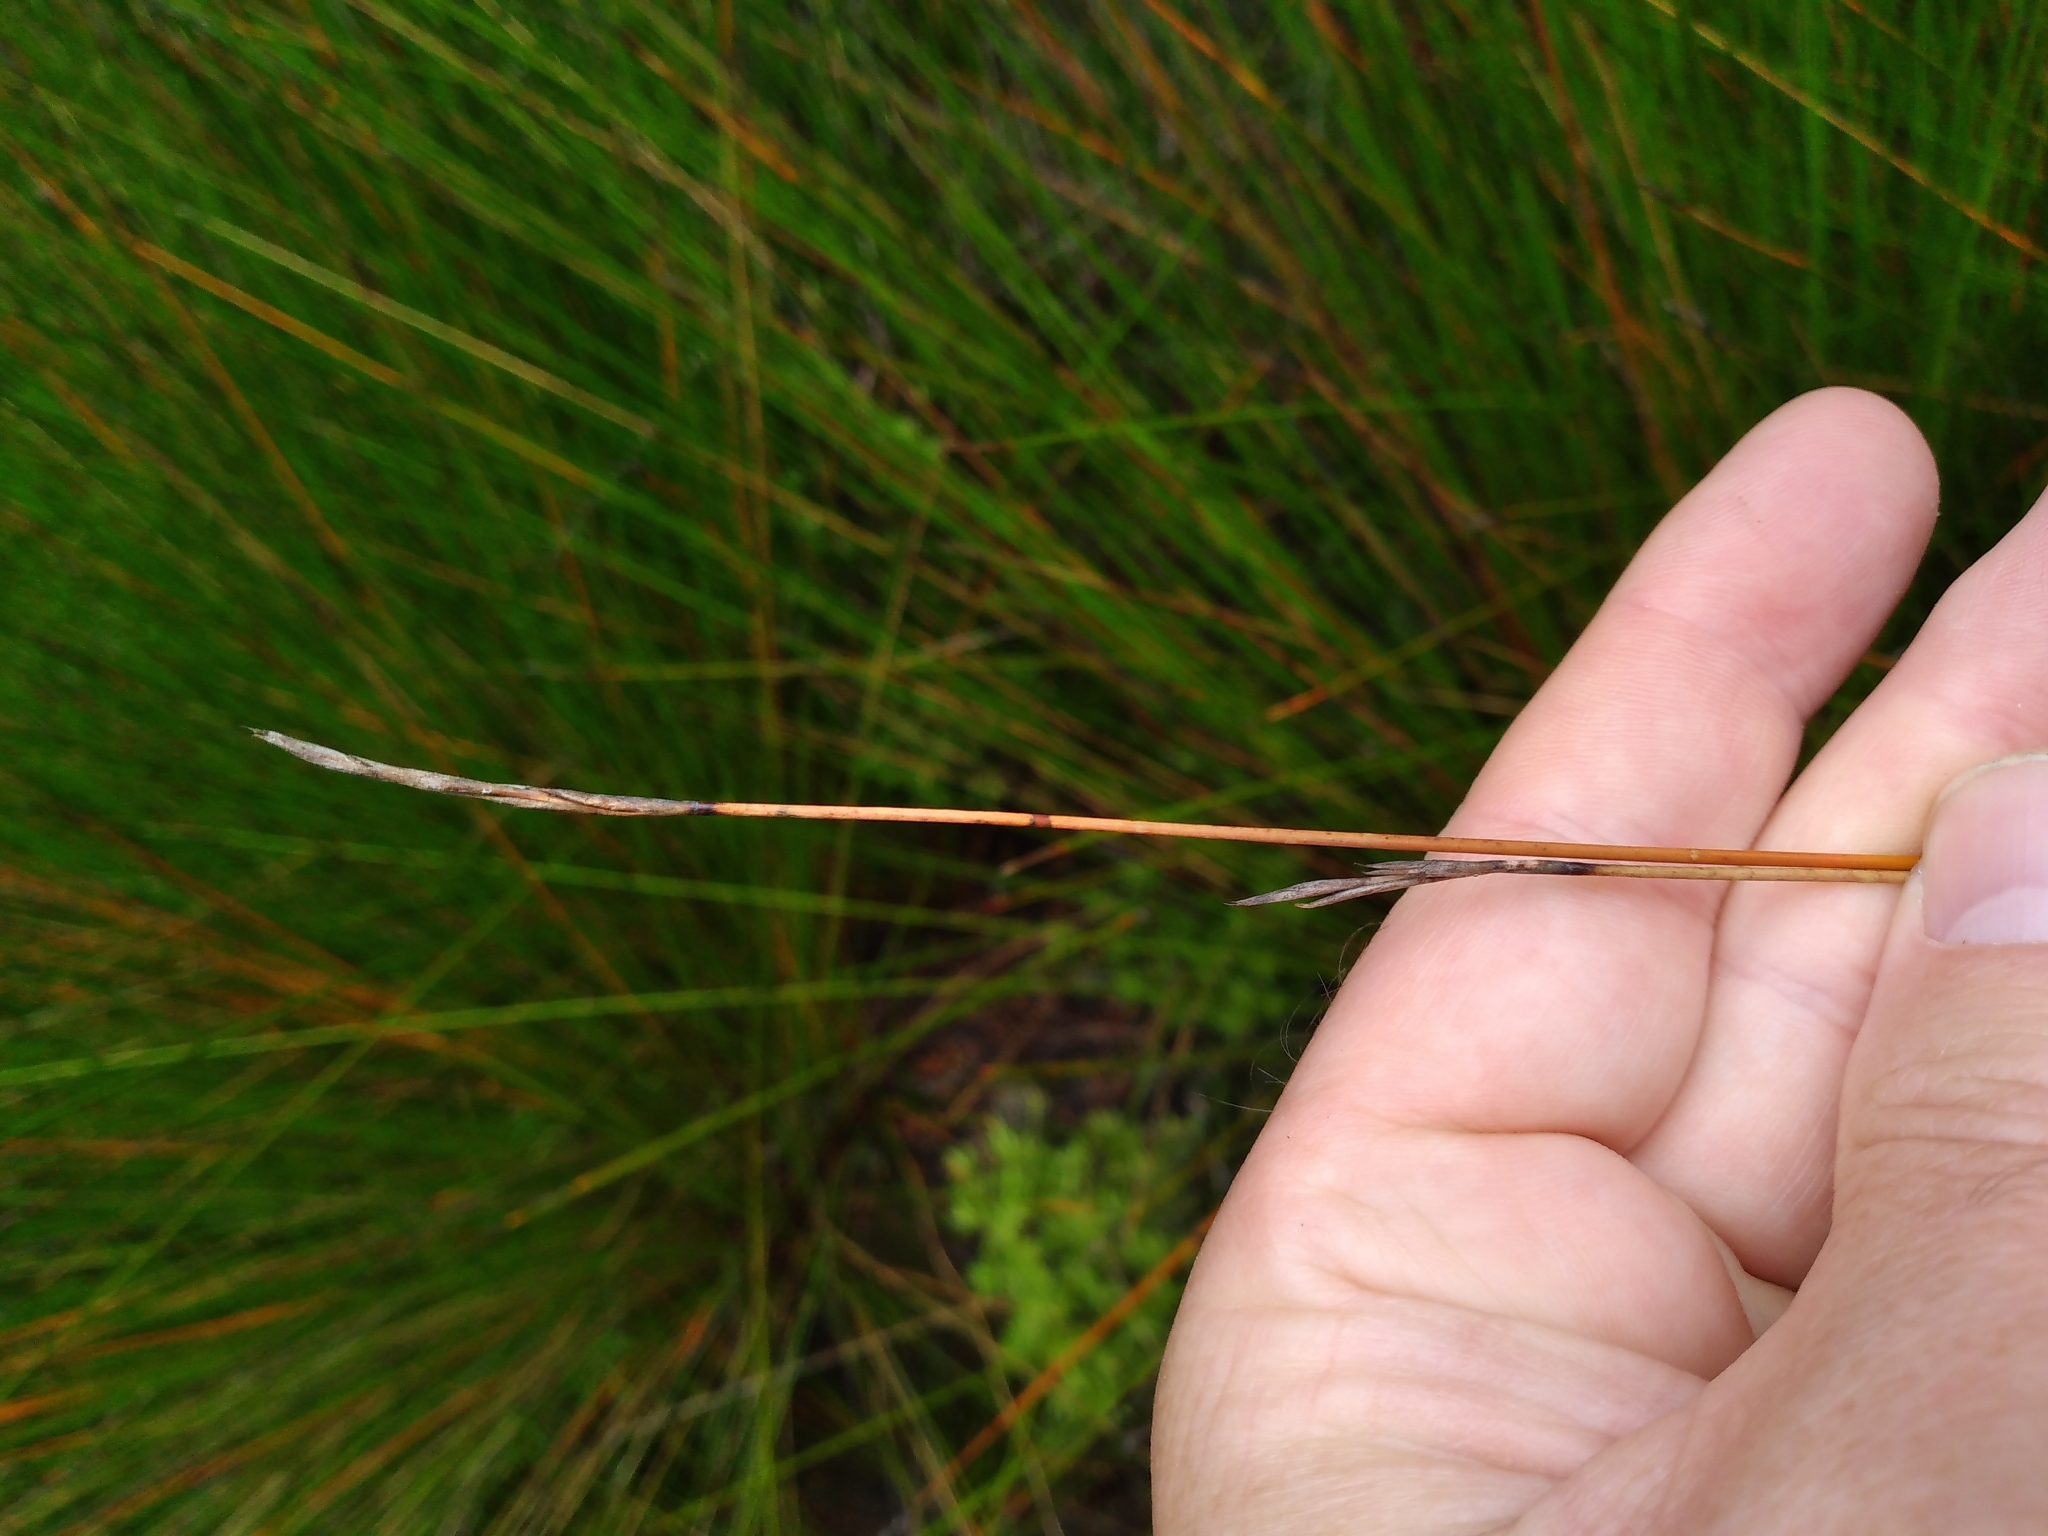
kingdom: Plantae
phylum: Tracheophyta
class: Liliopsida
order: Poales
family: Cyperaceae
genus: Lepidosperma
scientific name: Lepidosperma
